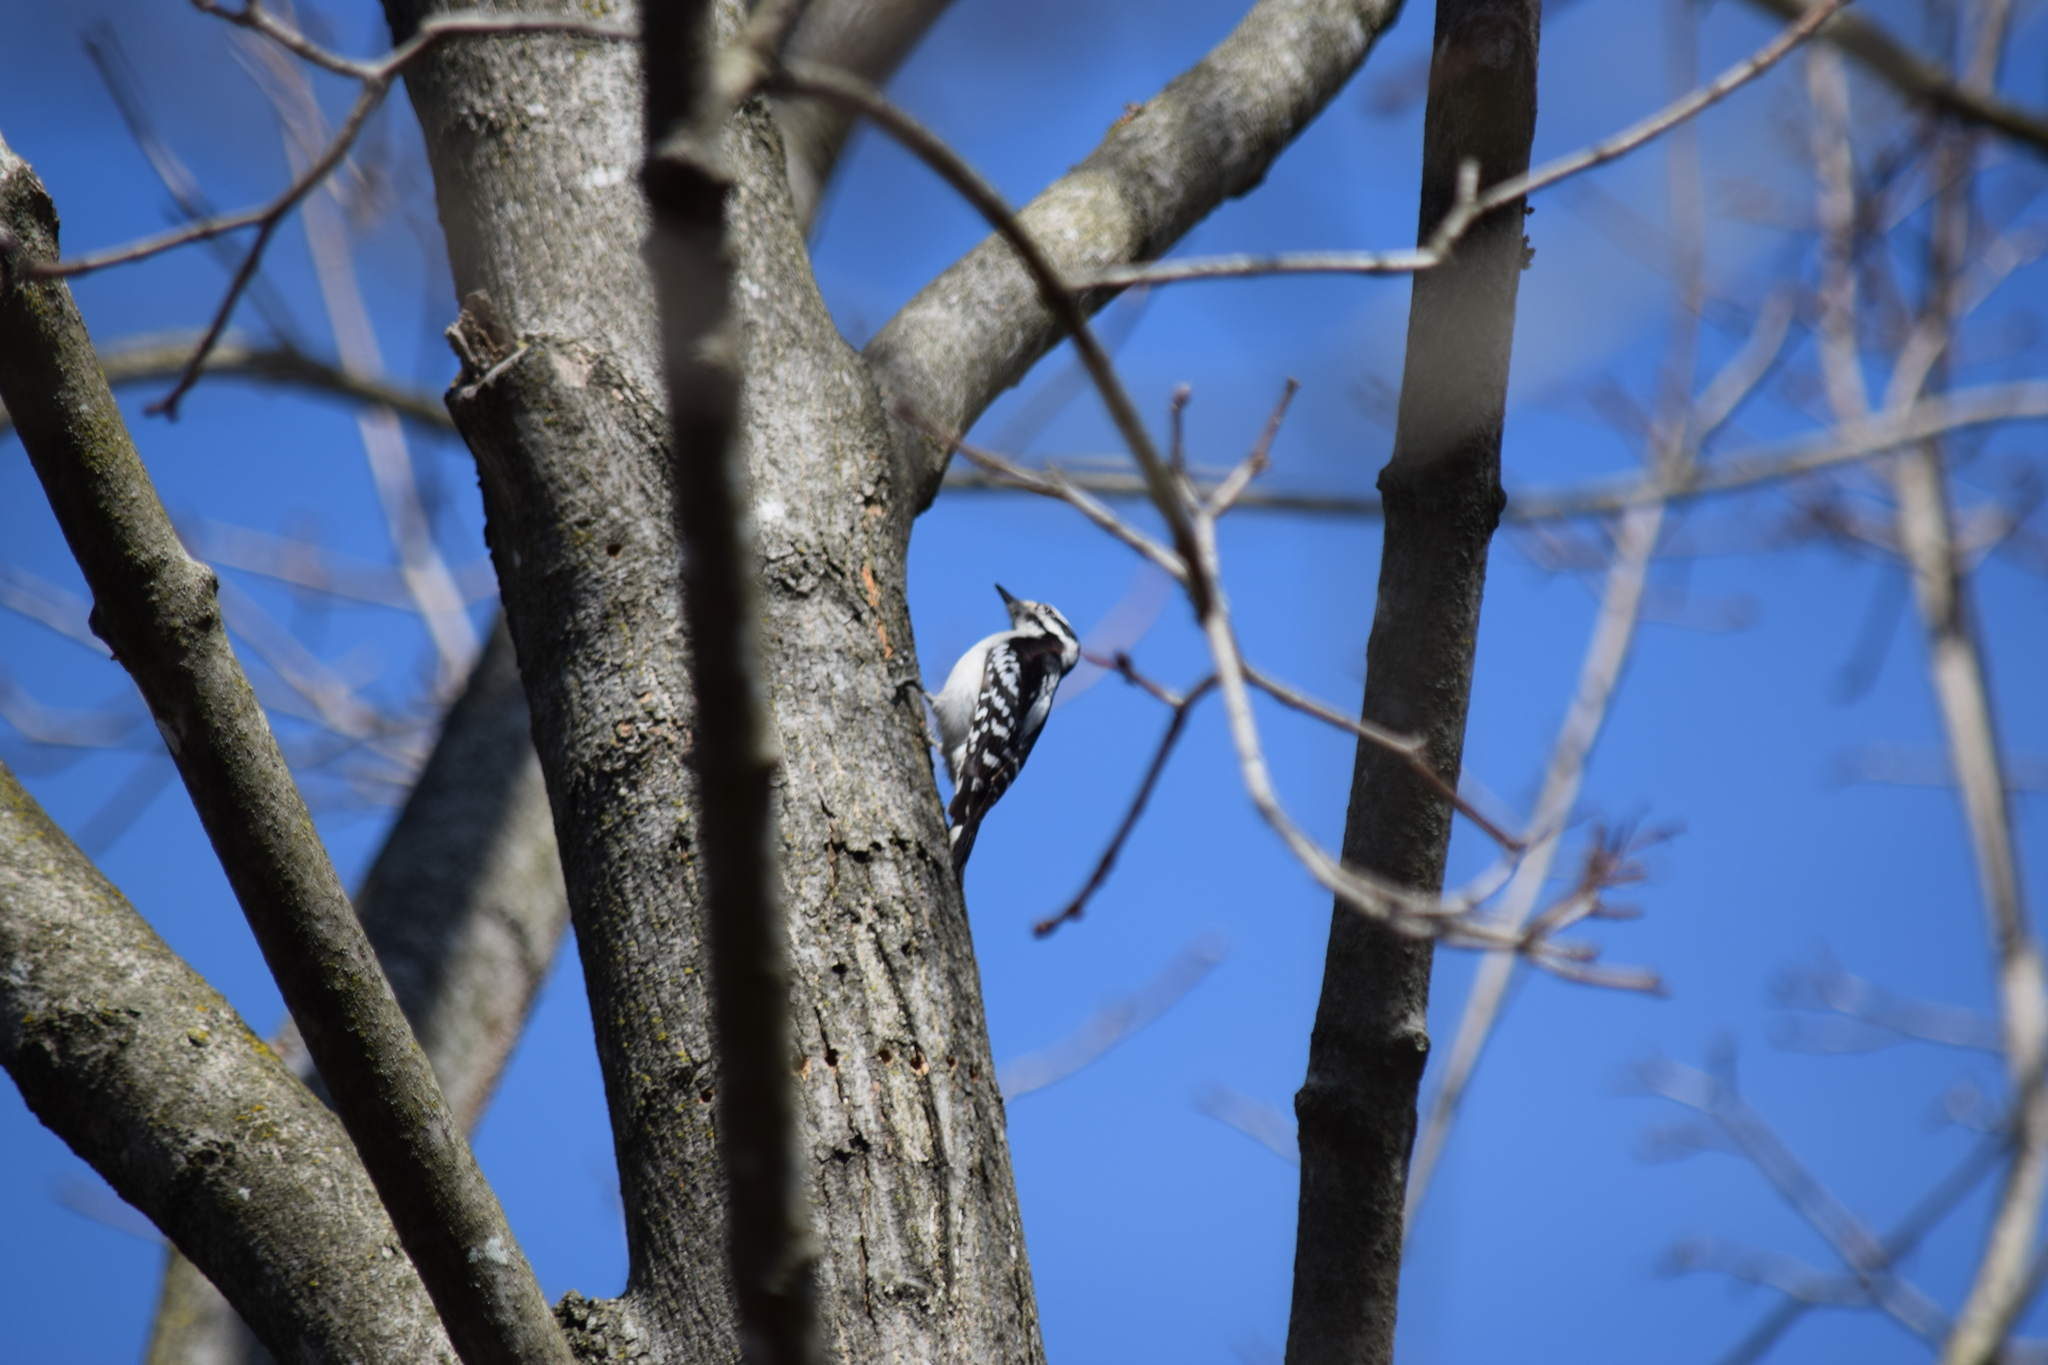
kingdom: Animalia
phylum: Chordata
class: Aves
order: Piciformes
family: Picidae
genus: Dryobates
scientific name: Dryobates pubescens
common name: Downy woodpecker
